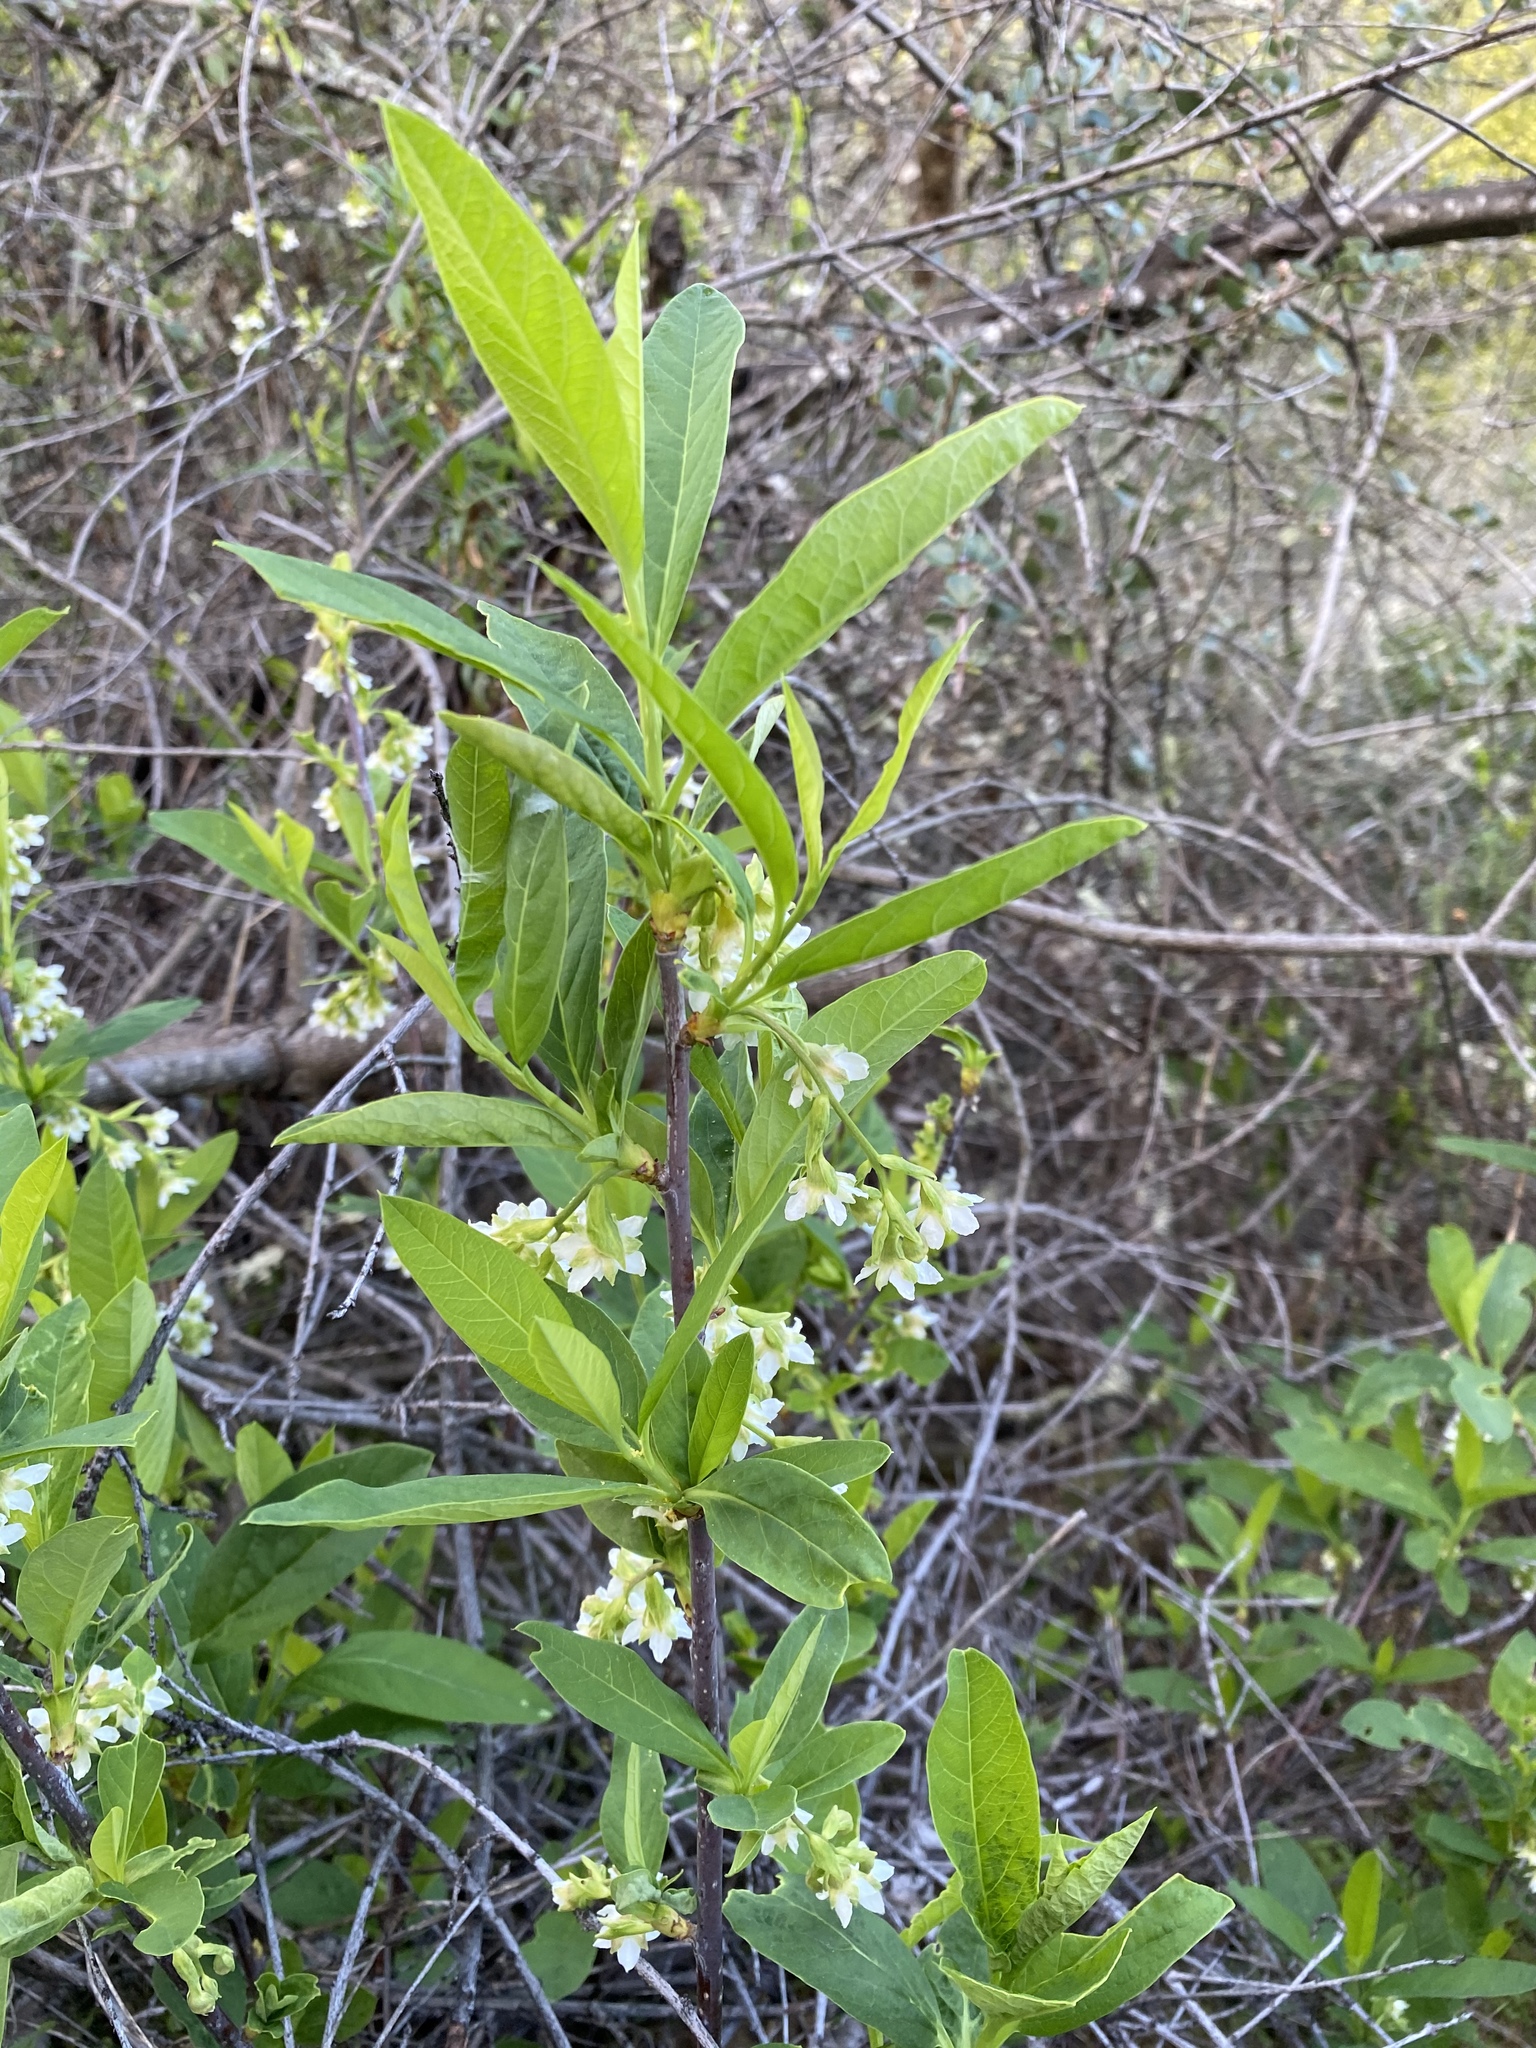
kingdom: Plantae
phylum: Tracheophyta
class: Magnoliopsida
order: Rosales
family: Rosaceae
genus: Oemleria
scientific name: Oemleria cerasiformis
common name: Osoberry
